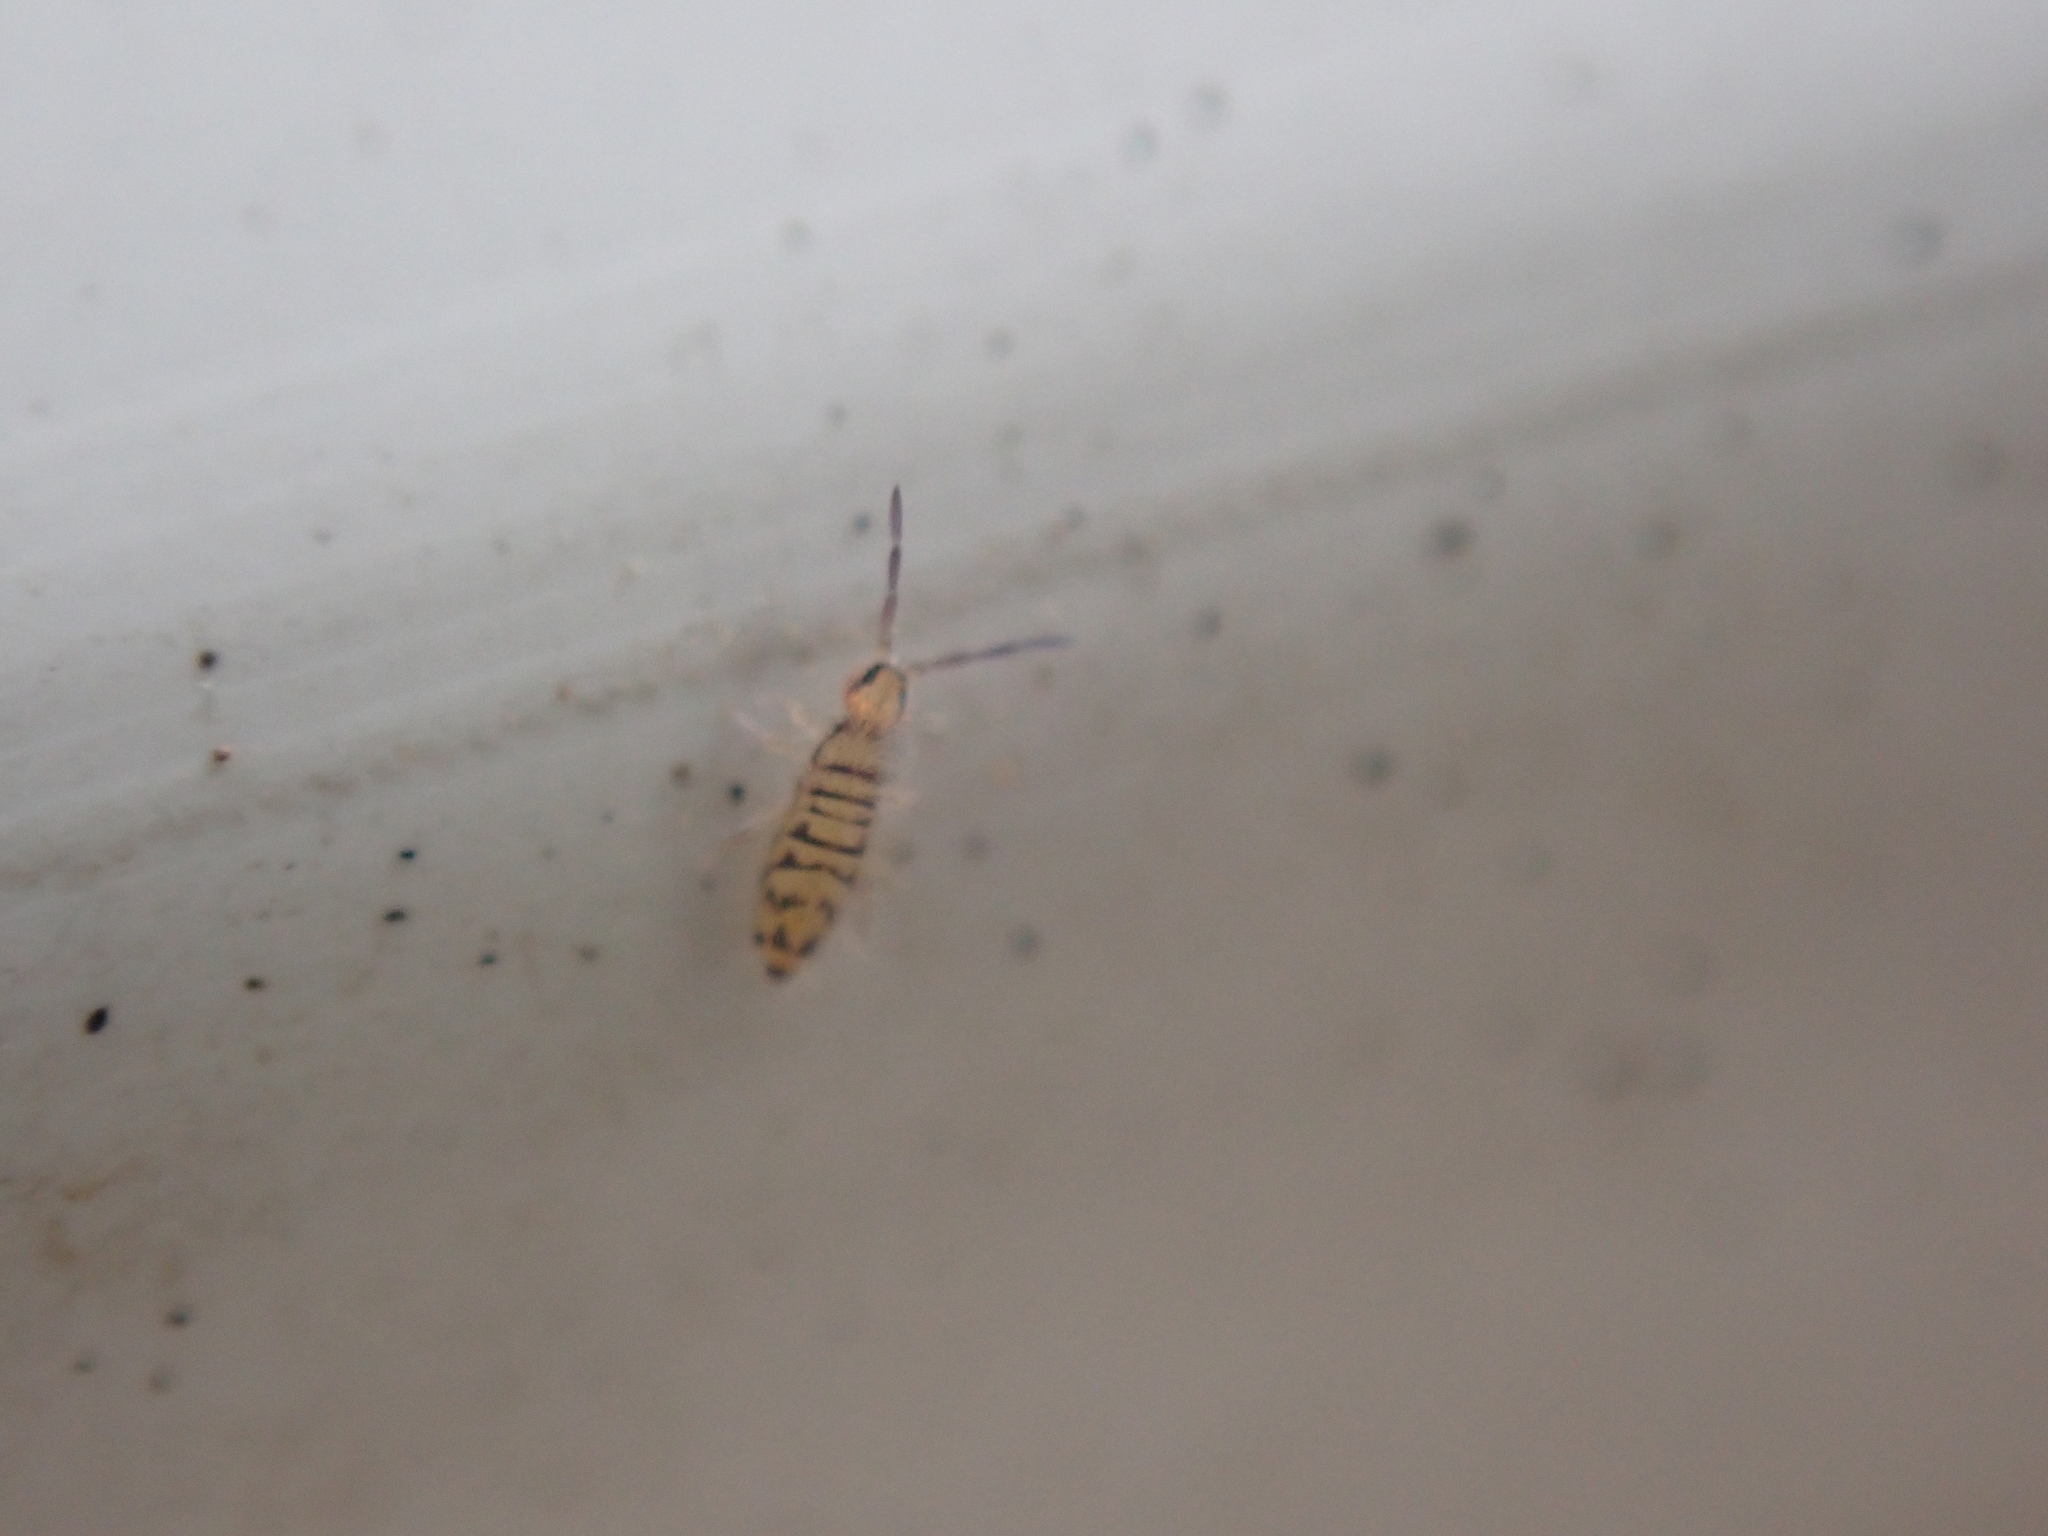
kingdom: Animalia
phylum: Arthropoda
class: Collembola
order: Entomobryomorpha
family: Entomobryidae
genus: Entomobrya
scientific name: Entomobrya multifasciata
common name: Springtail
